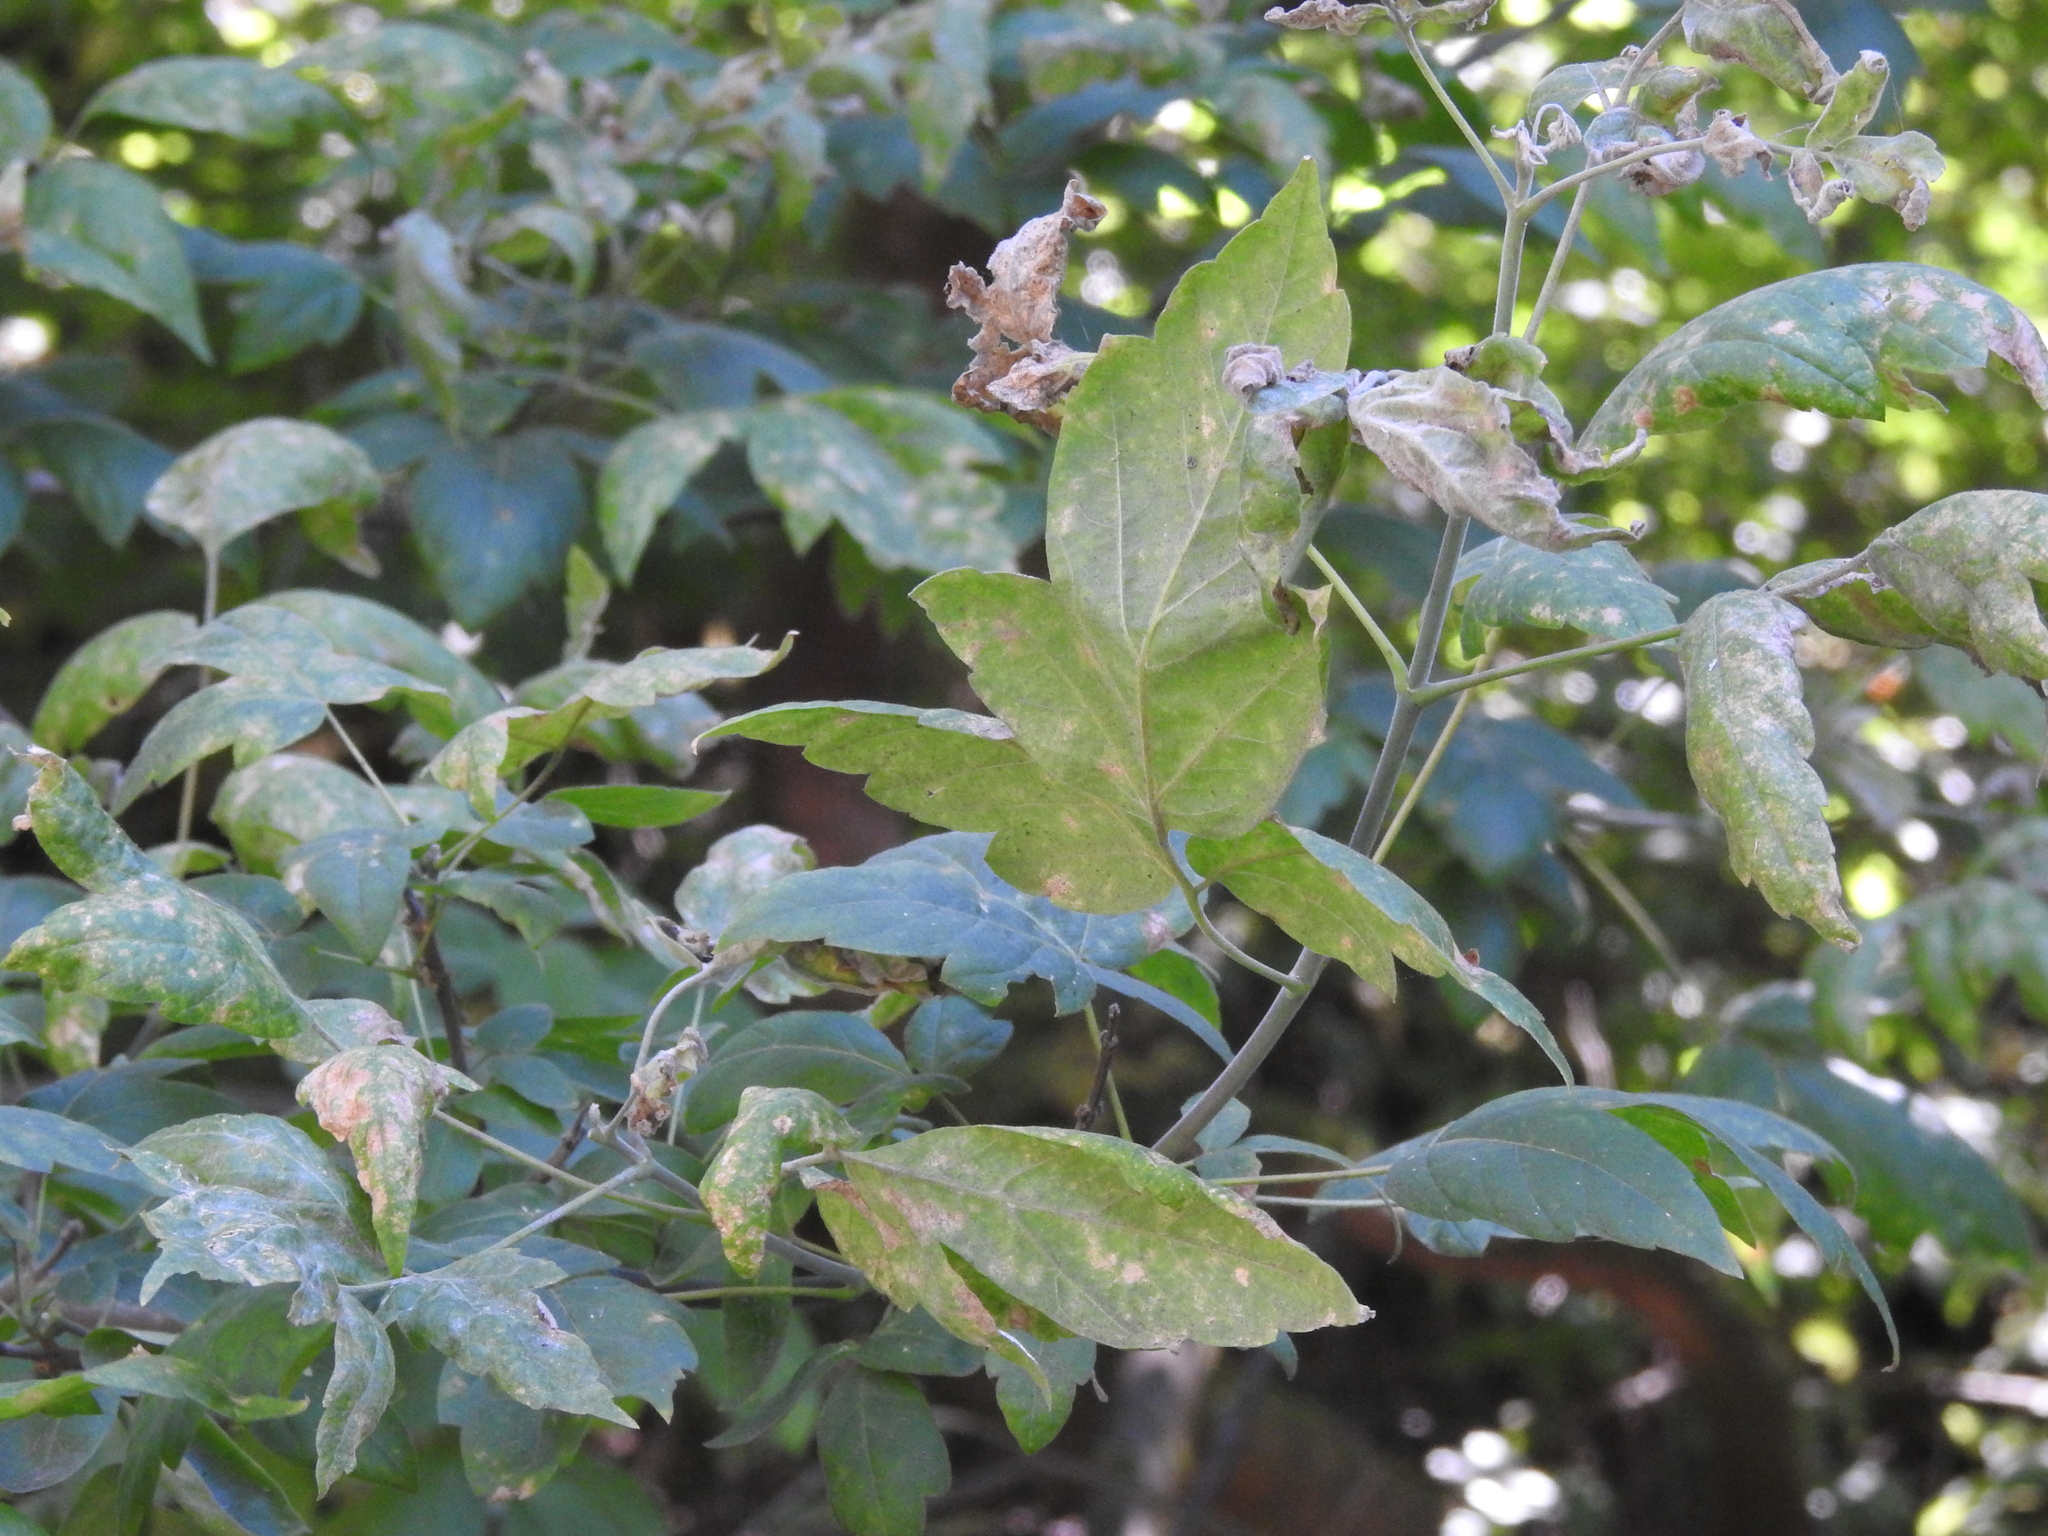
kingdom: Plantae
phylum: Tracheophyta
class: Magnoliopsida
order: Sapindales
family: Sapindaceae
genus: Acer
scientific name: Acer negundo
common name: Ashleaf maple
